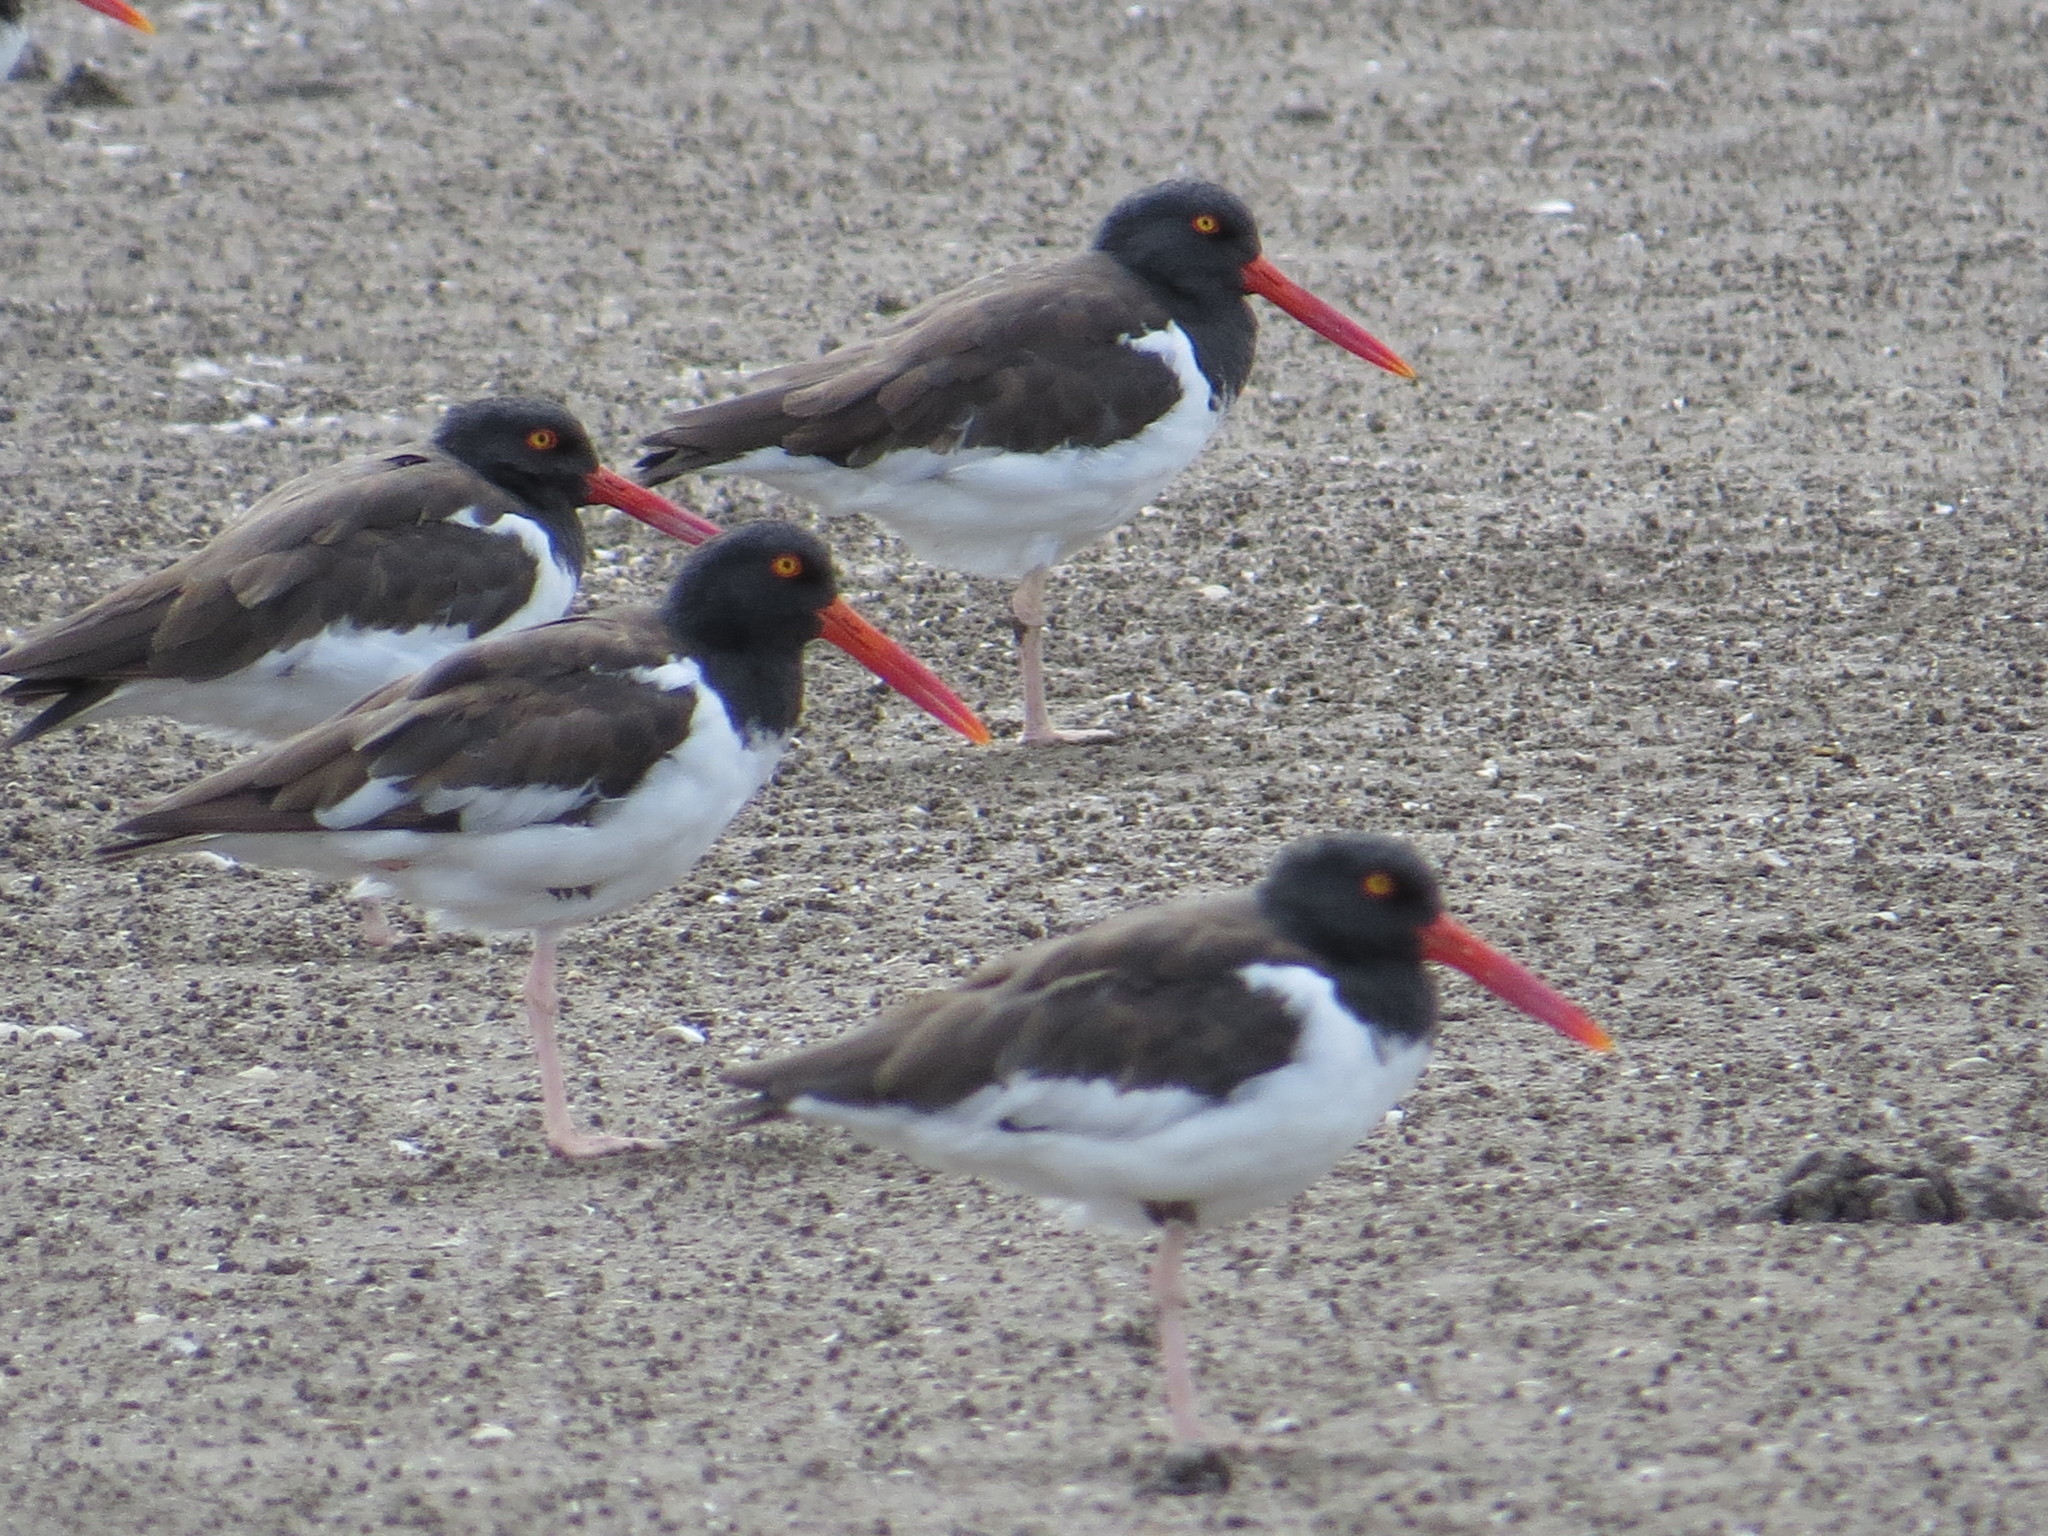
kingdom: Animalia
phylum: Chordata
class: Aves
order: Charadriiformes
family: Haematopodidae
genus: Haematopus
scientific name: Haematopus palliatus
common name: American oystercatcher
